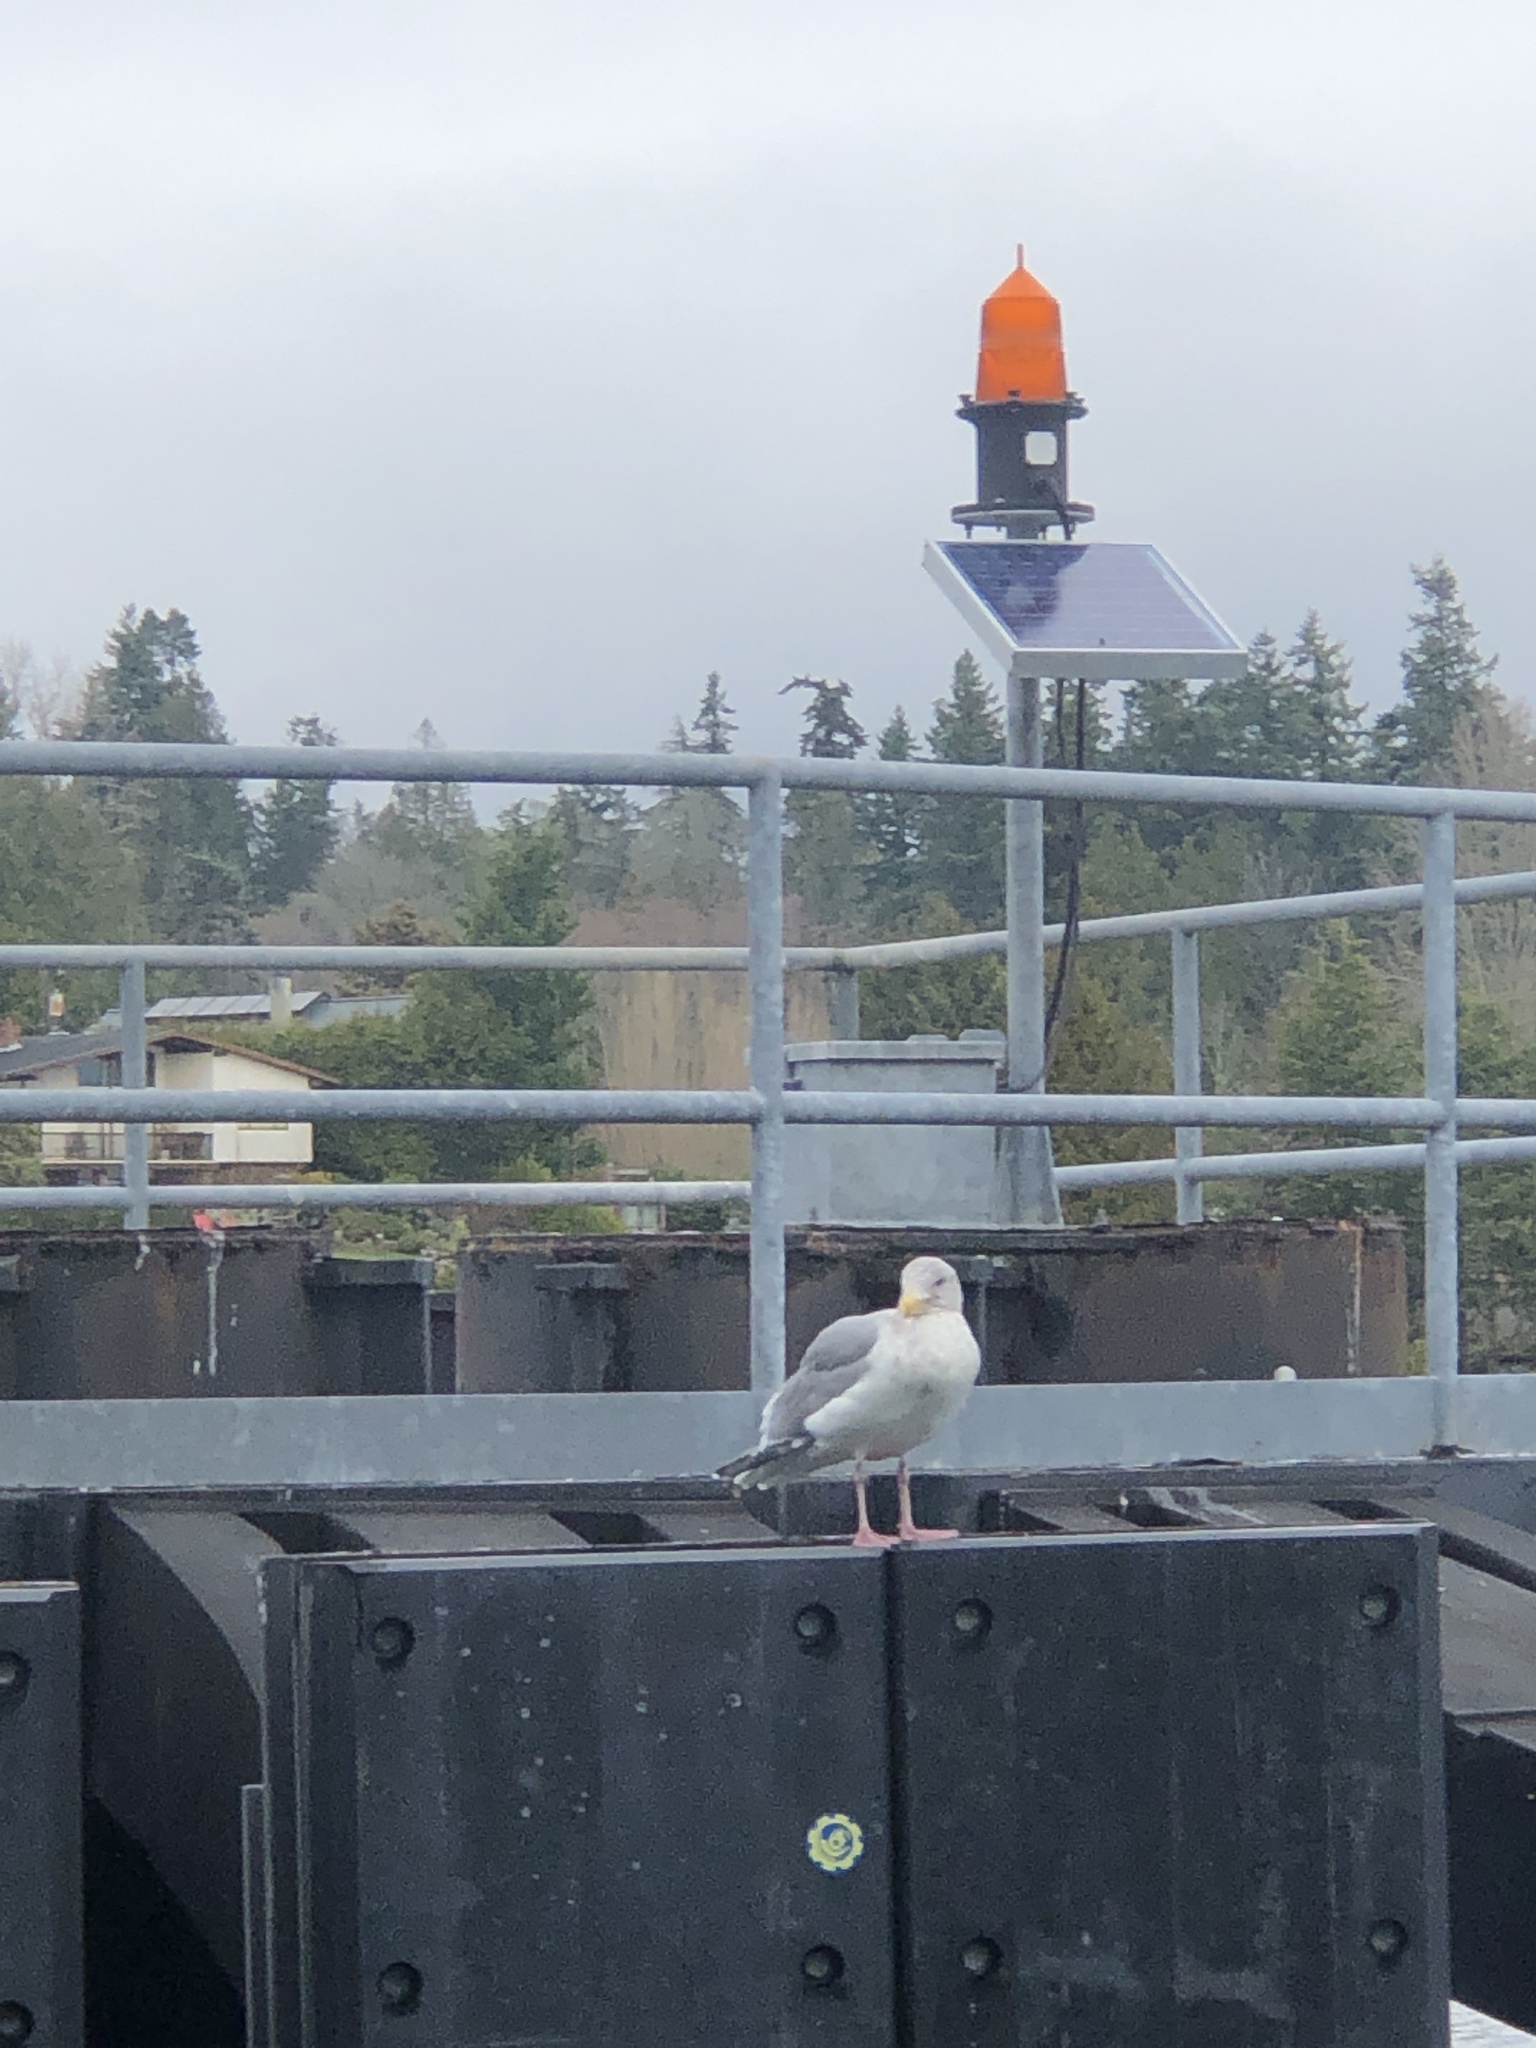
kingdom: Animalia
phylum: Chordata
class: Aves
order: Charadriiformes
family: Laridae
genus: Larus
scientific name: Larus
